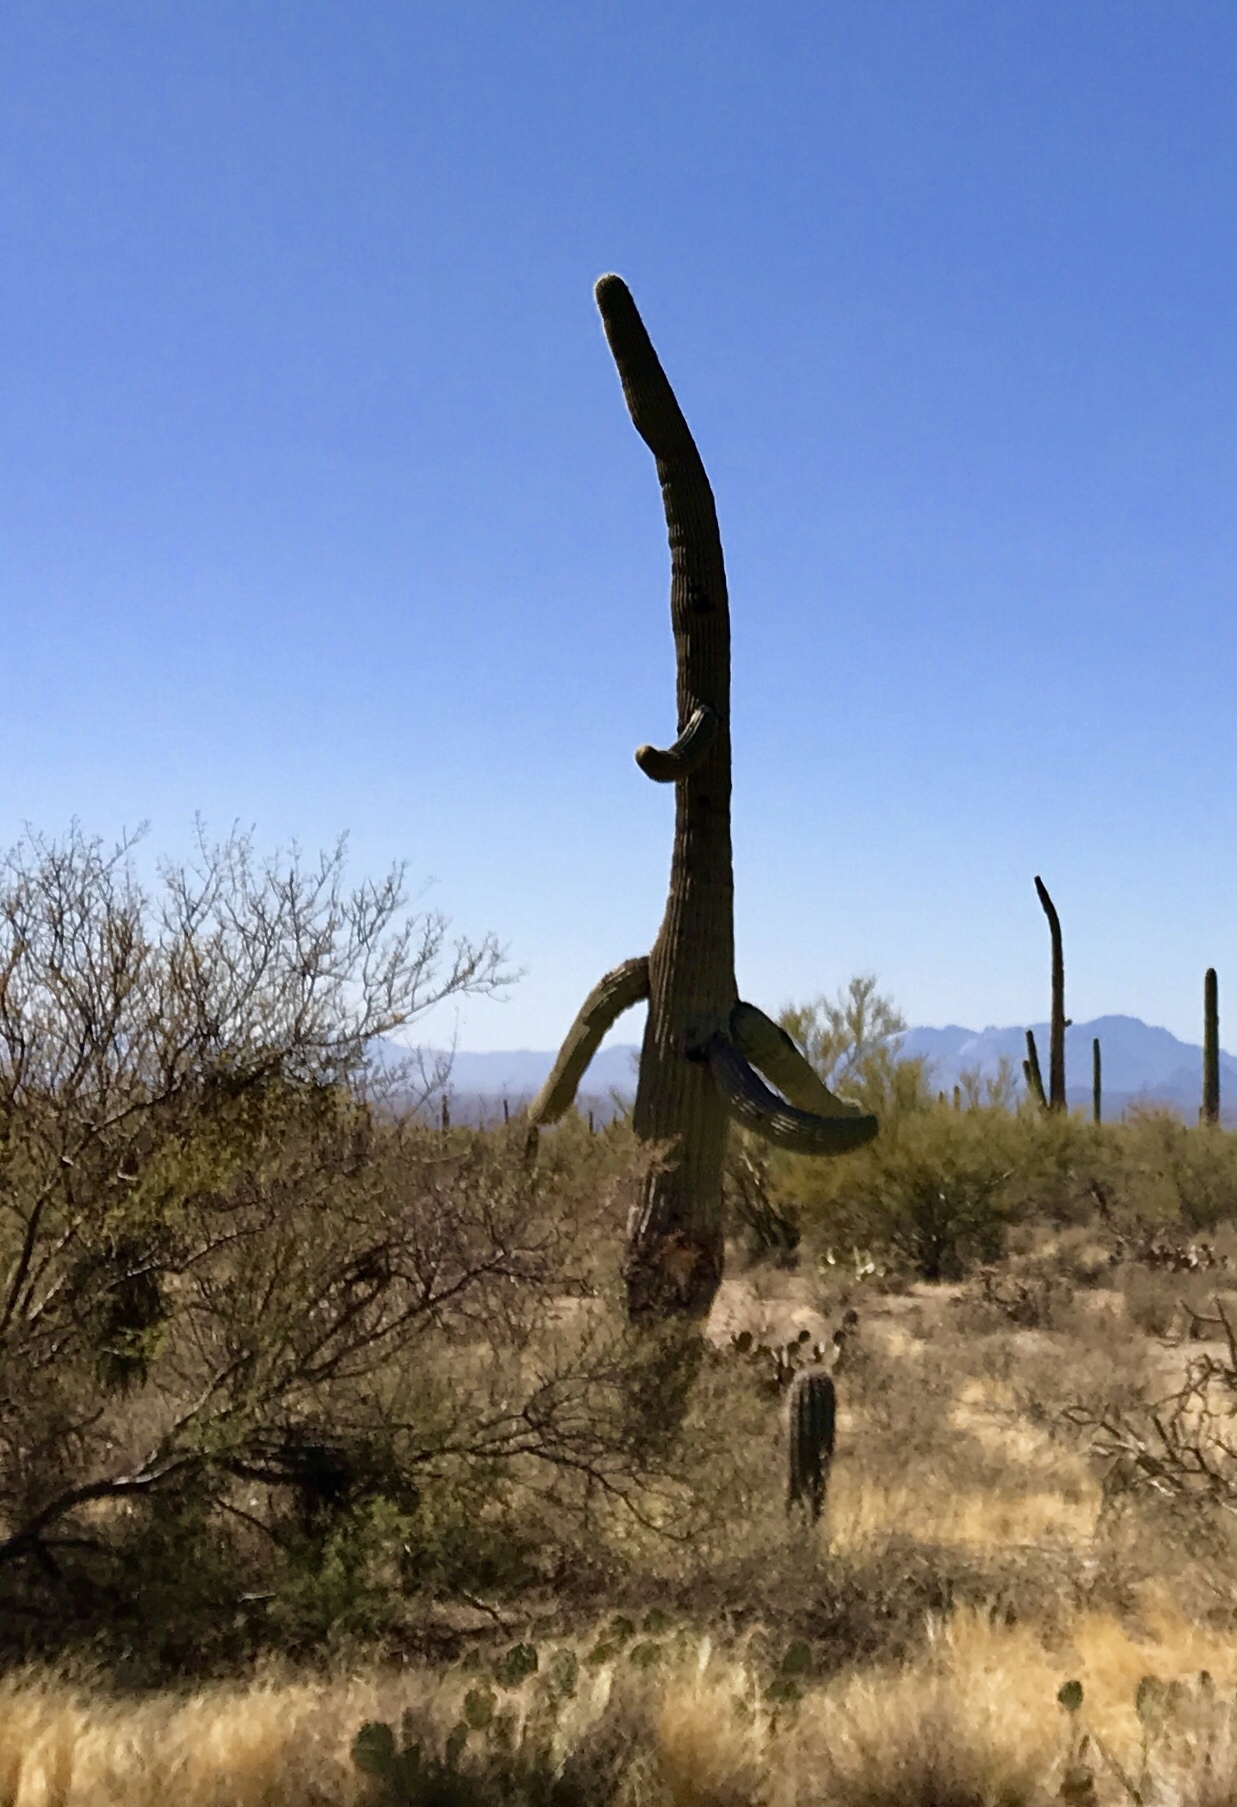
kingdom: Plantae
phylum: Tracheophyta
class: Magnoliopsida
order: Caryophyllales
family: Cactaceae
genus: Carnegiea
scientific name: Carnegiea gigantea
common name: Saguaro
